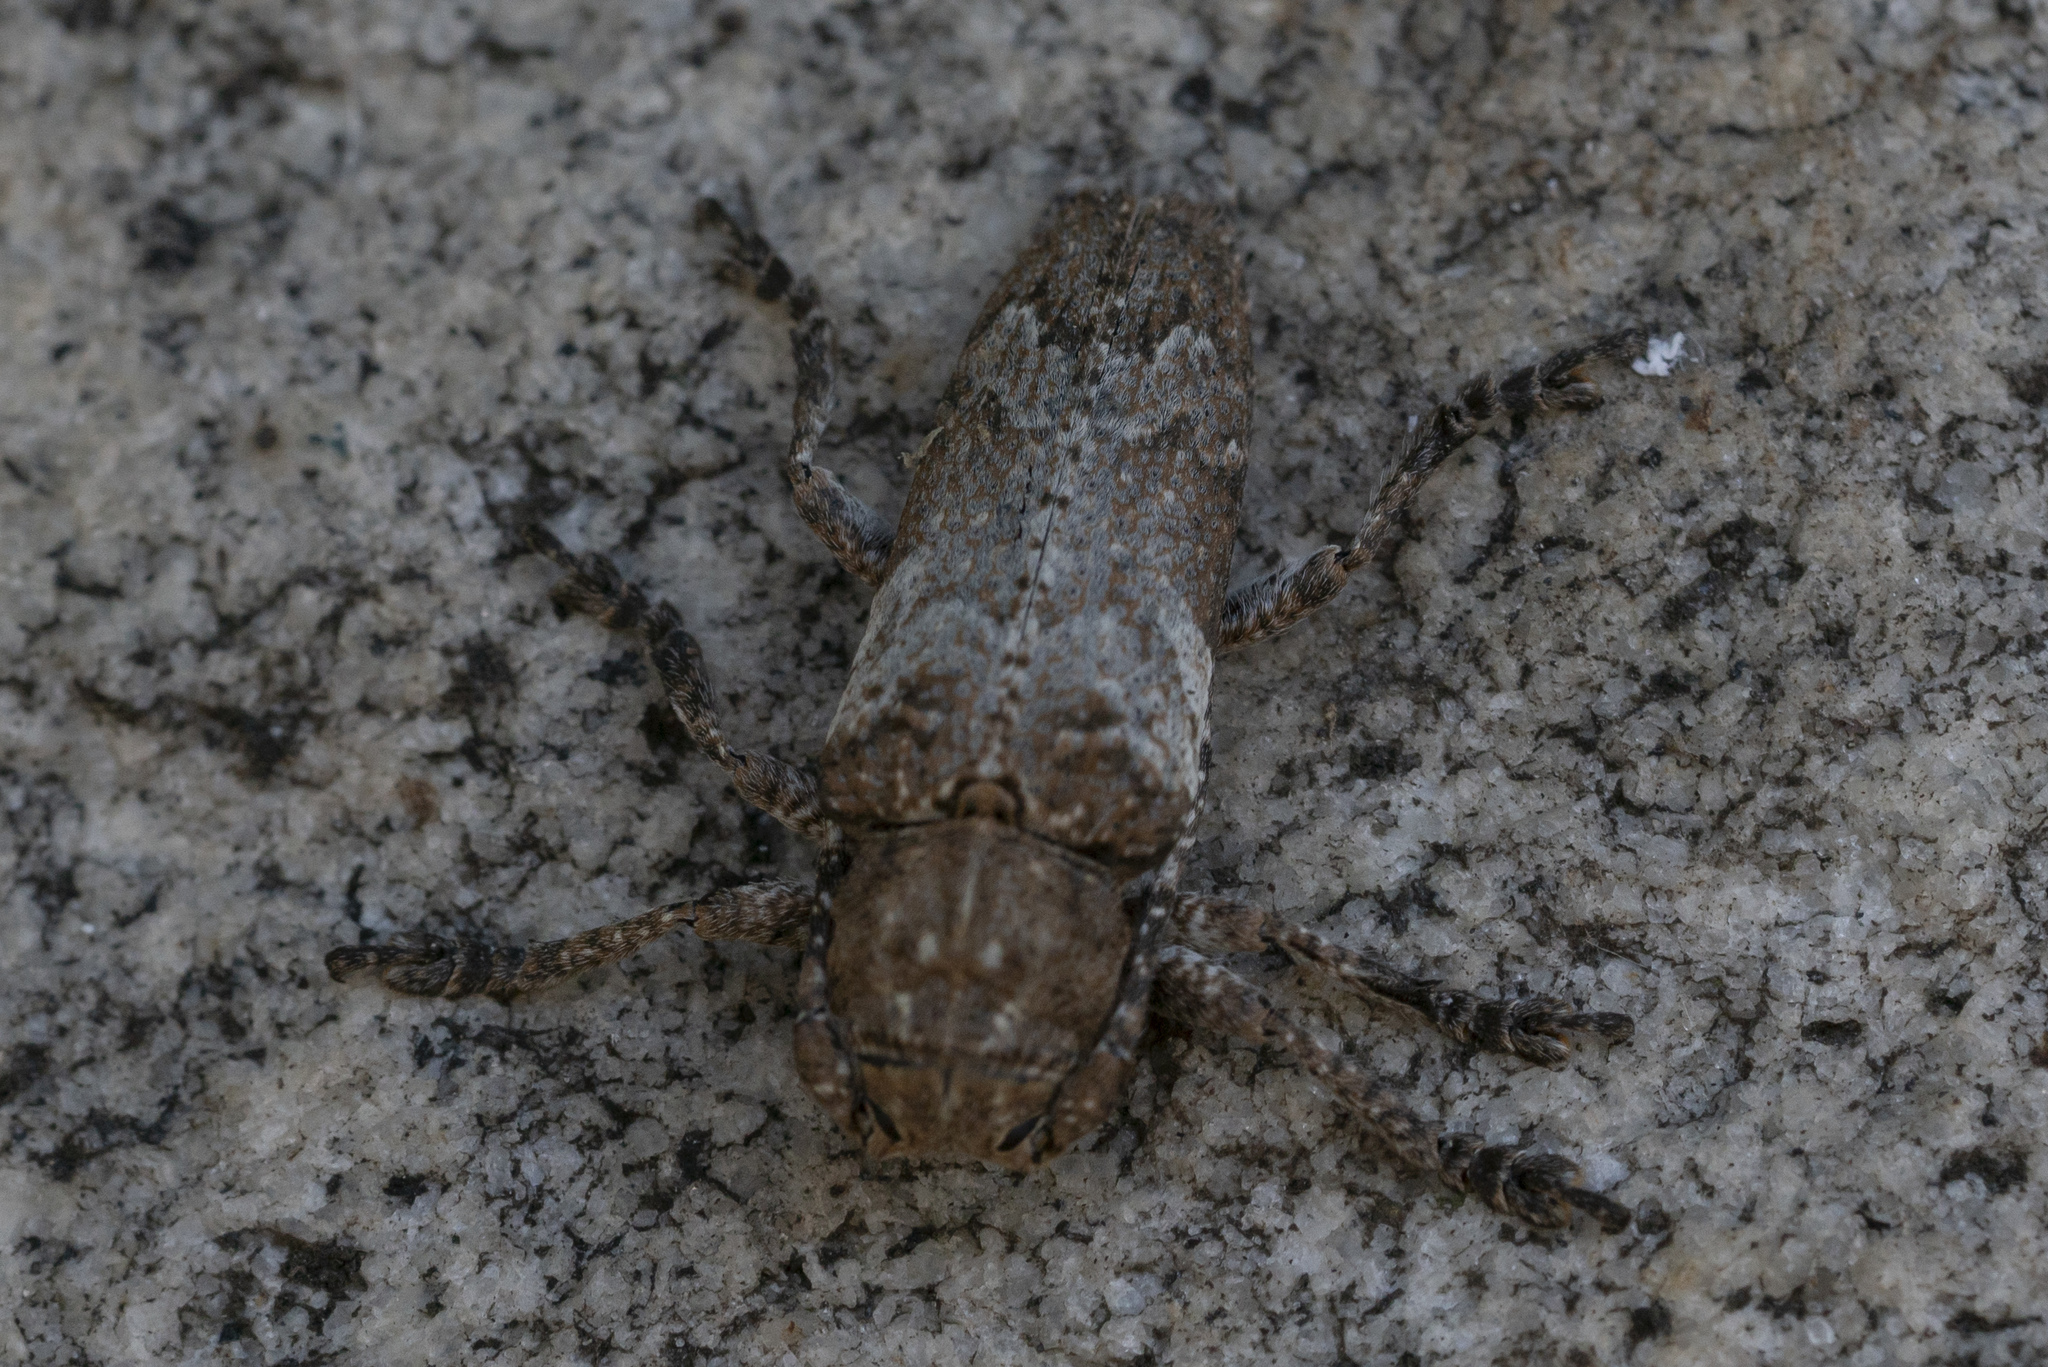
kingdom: Animalia
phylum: Arthropoda
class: Insecta
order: Coleoptera
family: Cerambycidae
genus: Niphona
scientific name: Niphona picticornis
